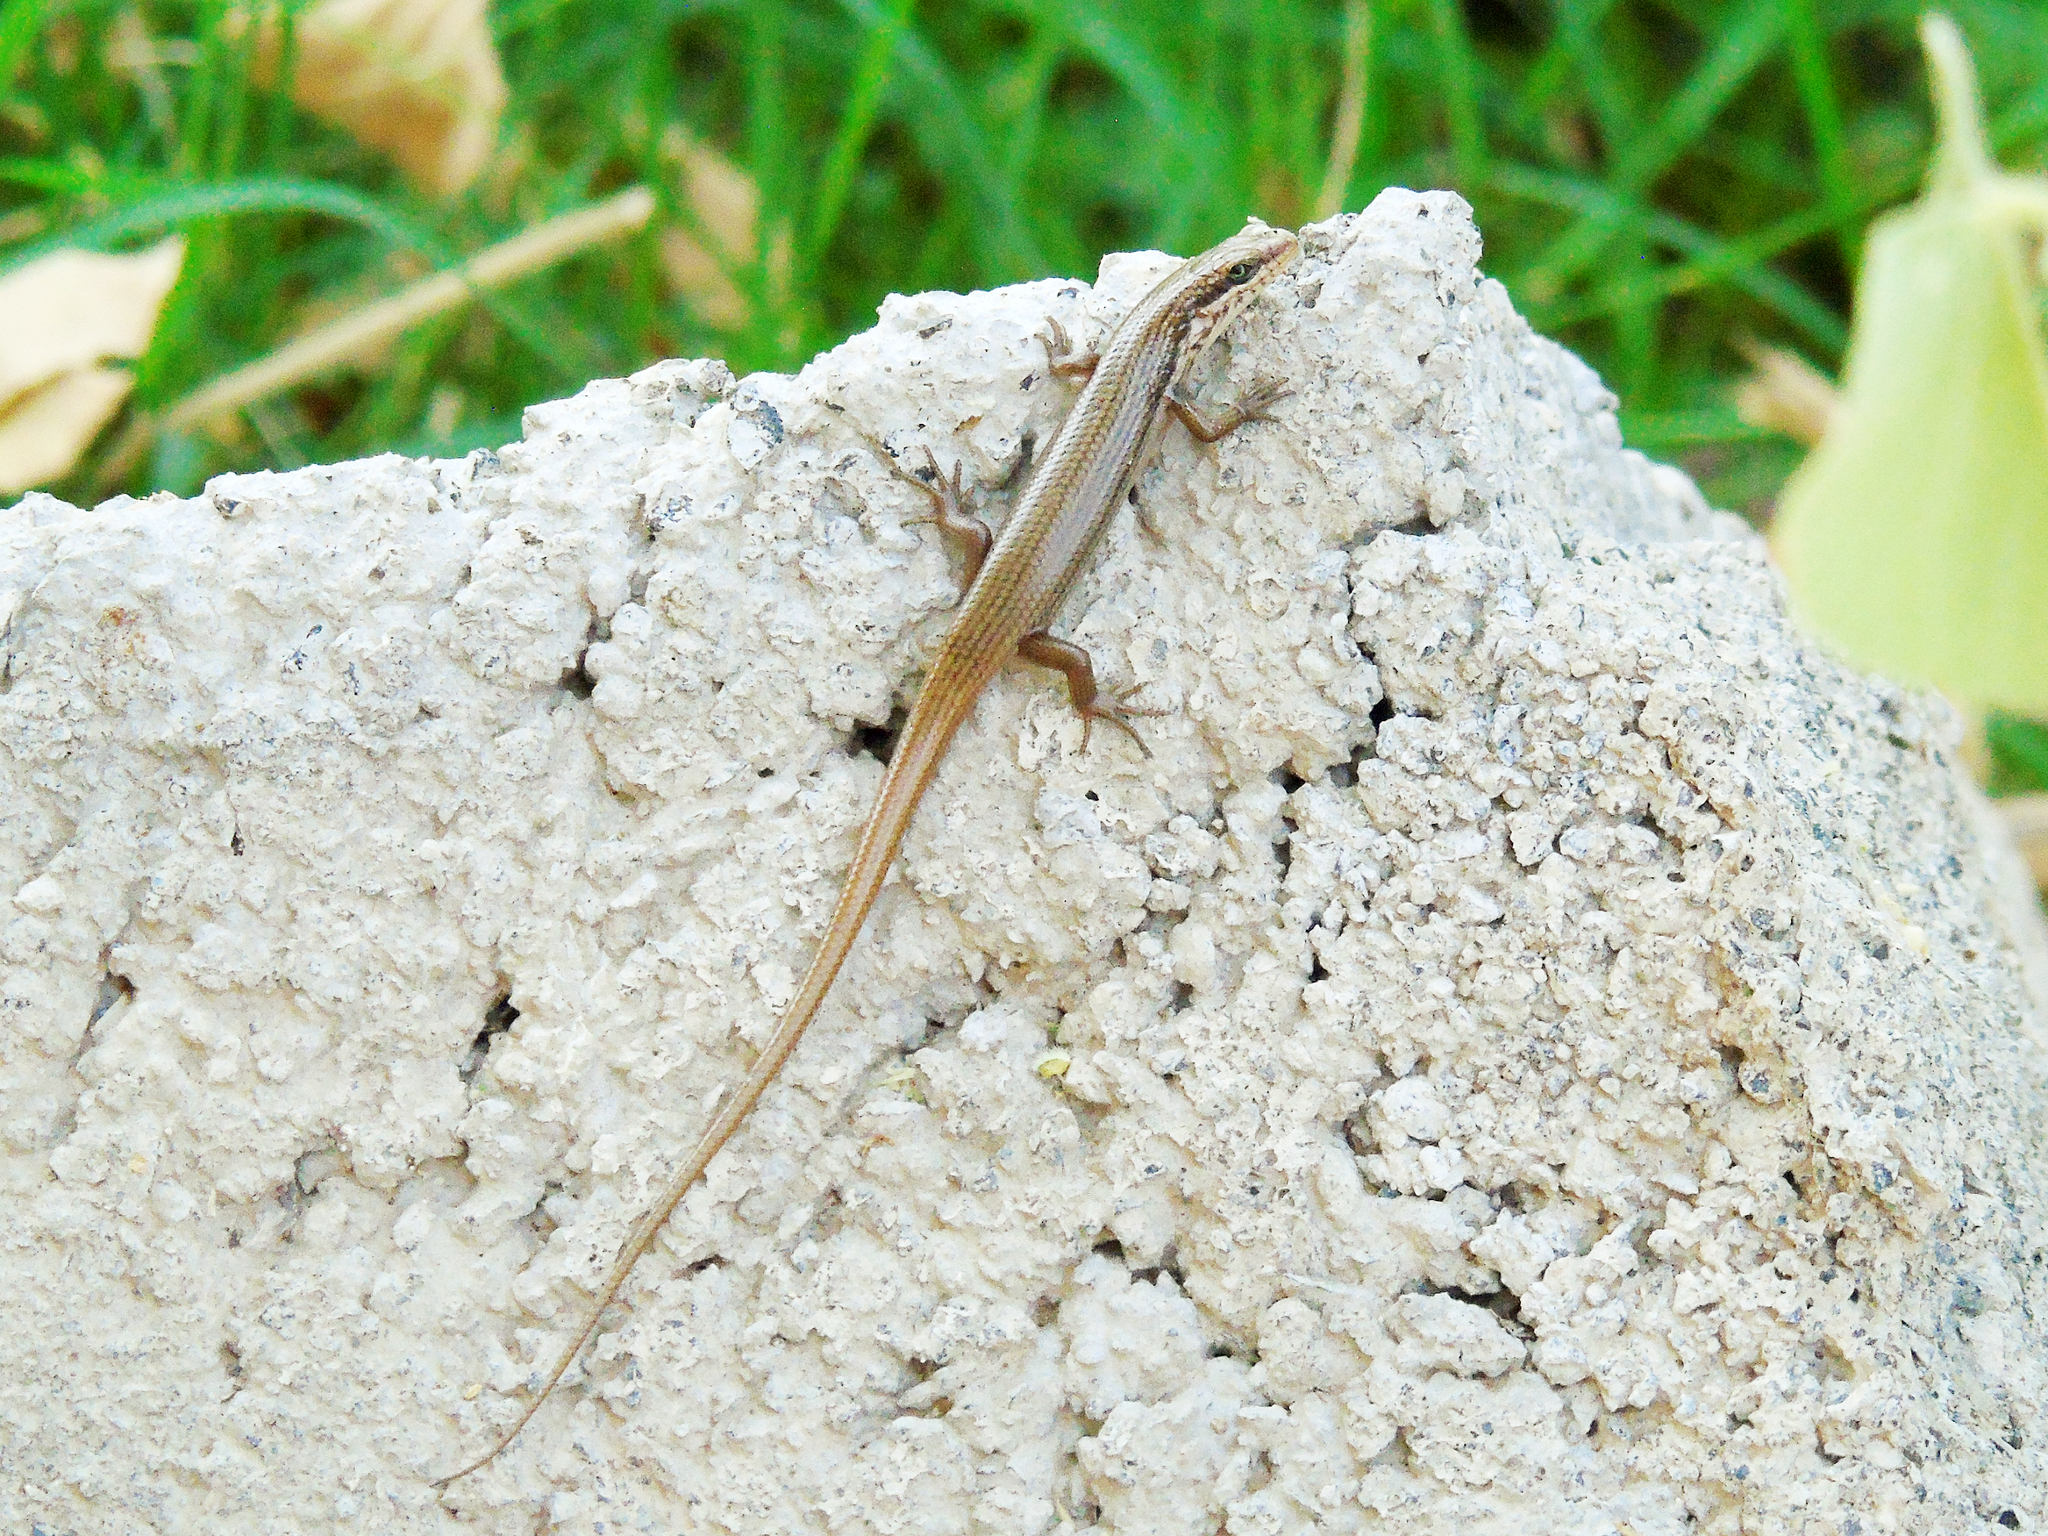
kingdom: Animalia
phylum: Chordata
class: Squamata
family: Scincidae
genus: Trachylepis
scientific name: Trachylepis tessellata
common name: Tessellated mabuya
